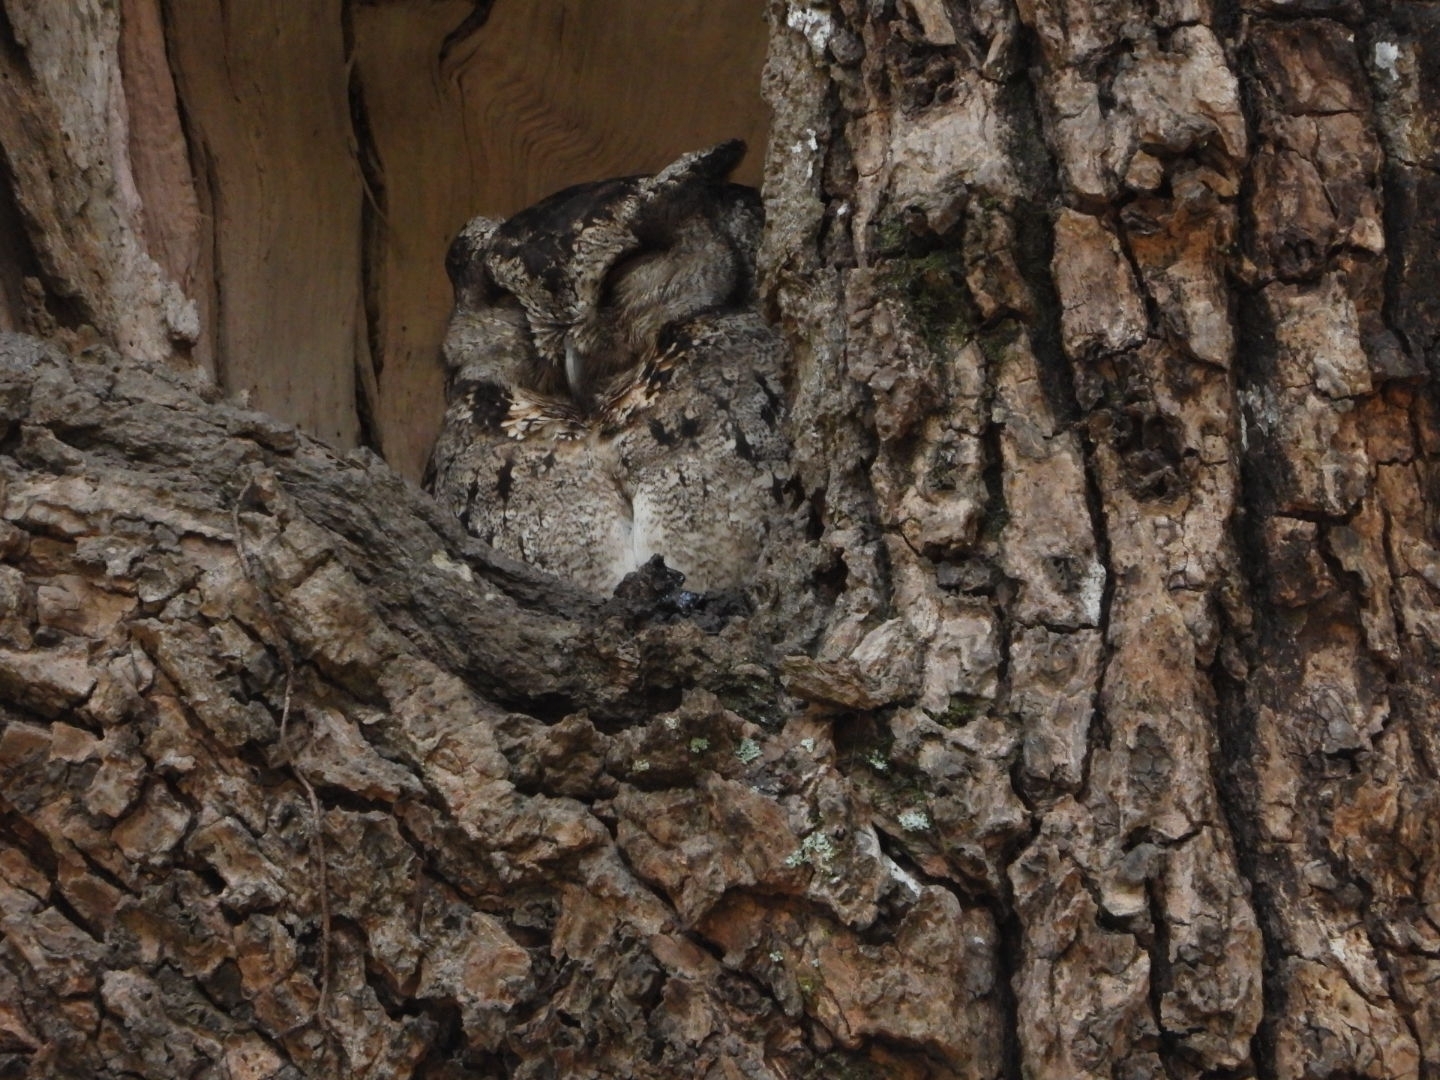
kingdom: Animalia
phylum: Chordata
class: Aves
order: Strigiformes
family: Strigidae
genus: Otus
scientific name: Otus lettia
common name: Collared scops owl
